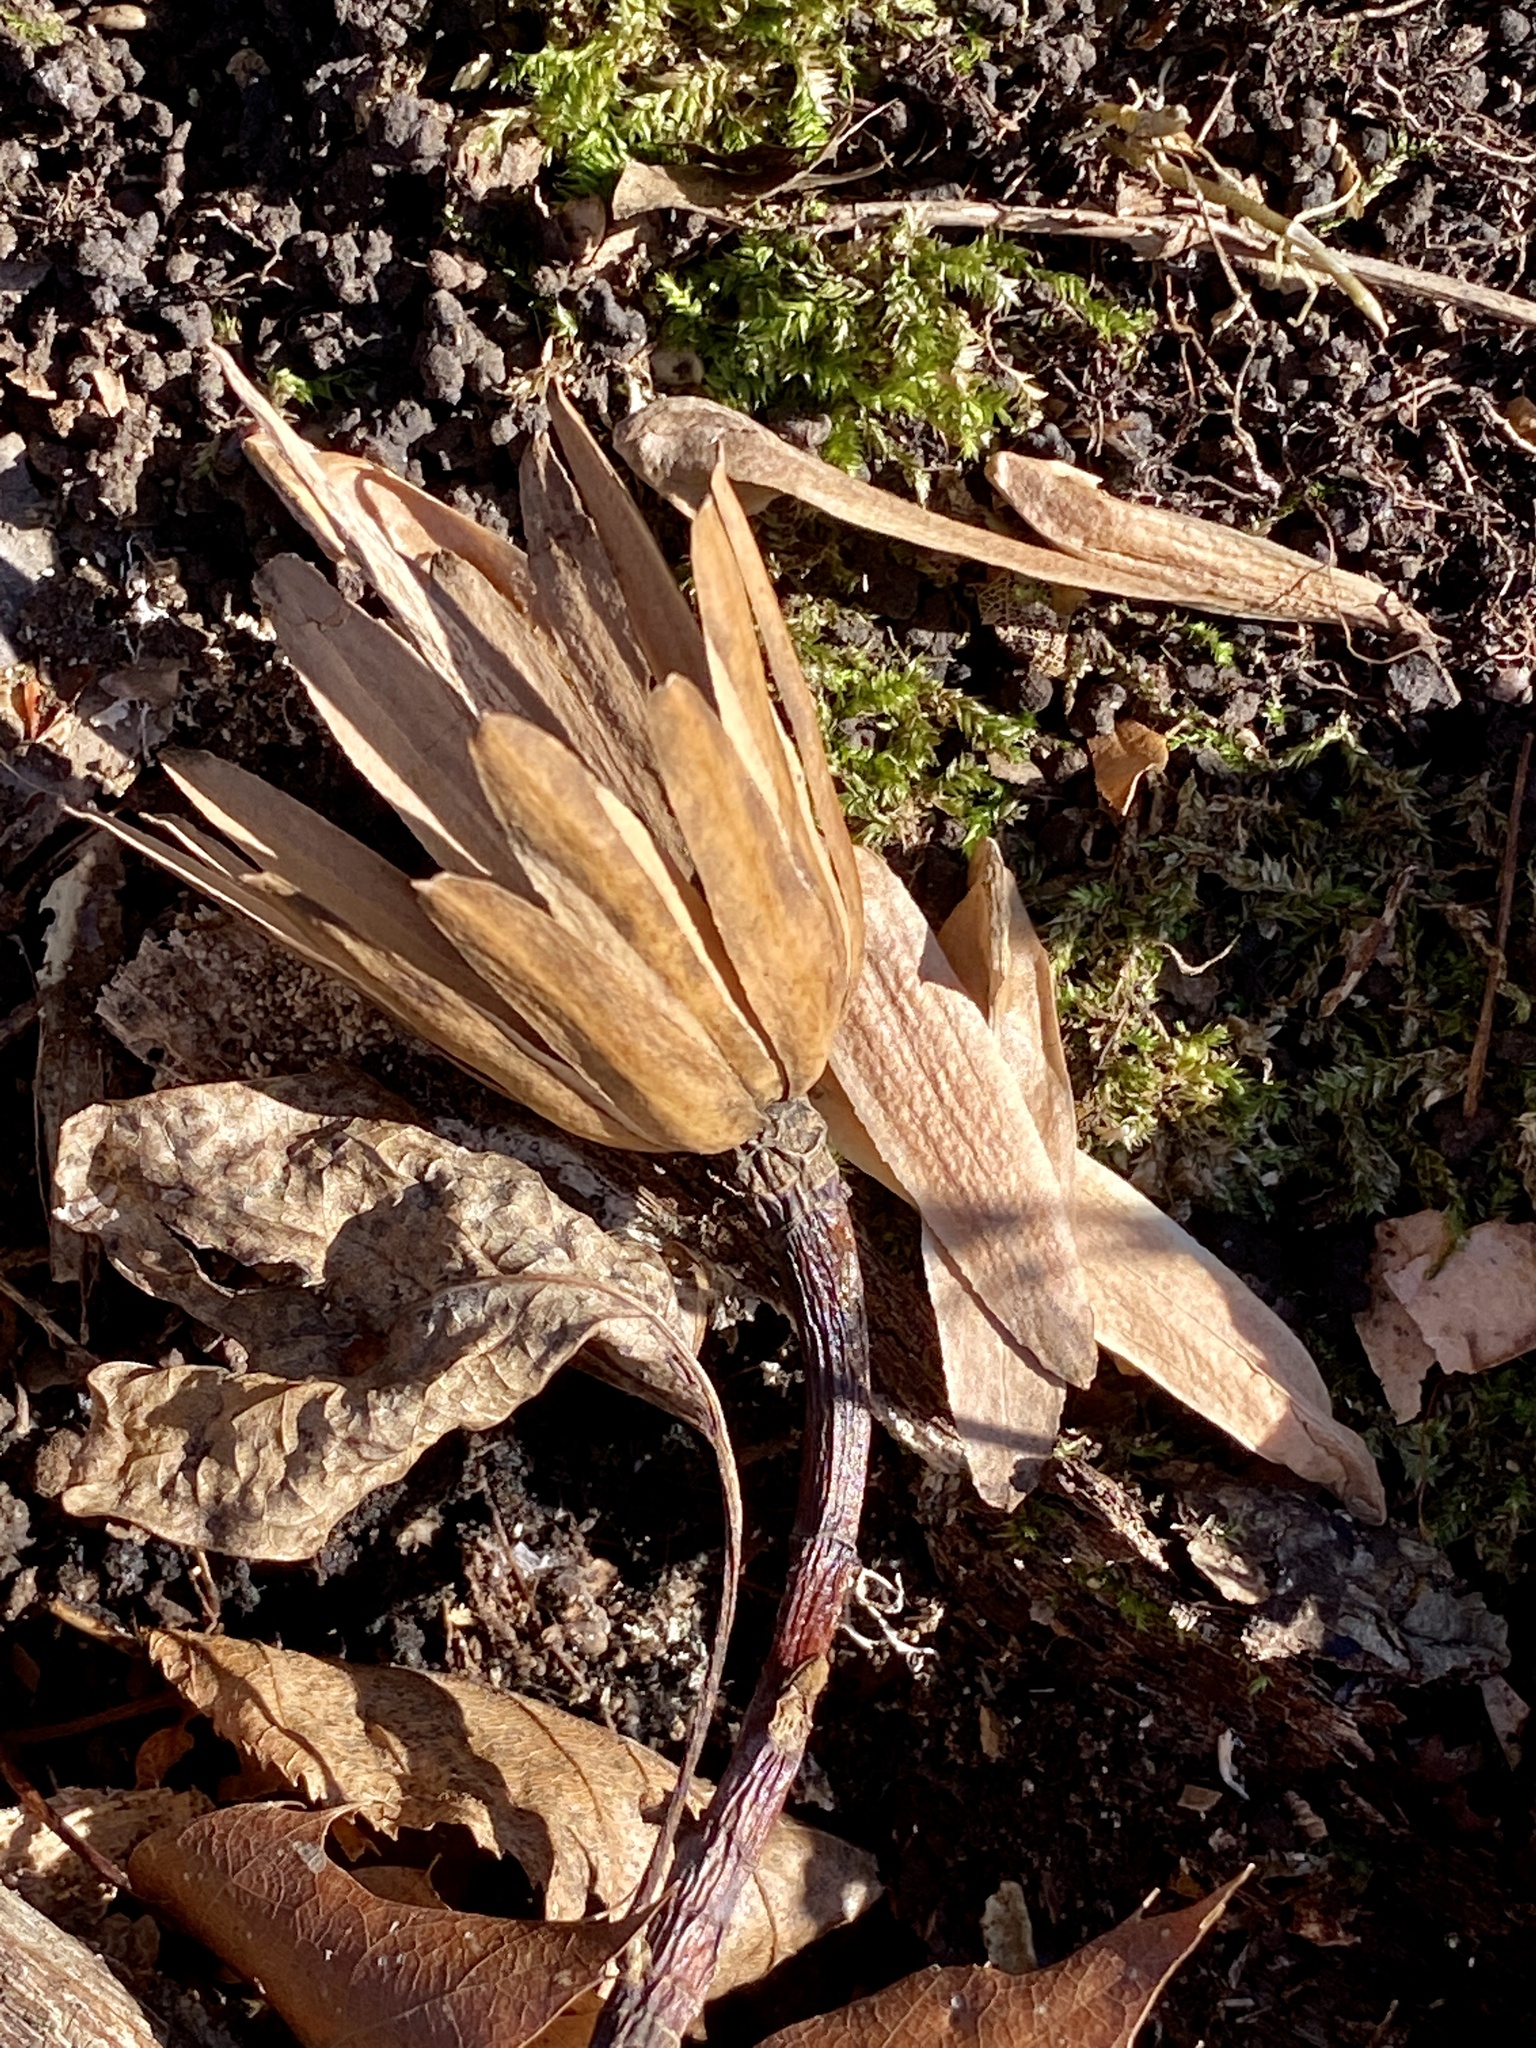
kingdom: Plantae
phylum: Tracheophyta
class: Magnoliopsida
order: Magnoliales
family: Magnoliaceae
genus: Liriodendron
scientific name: Liriodendron tulipifera
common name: Tulip tree
